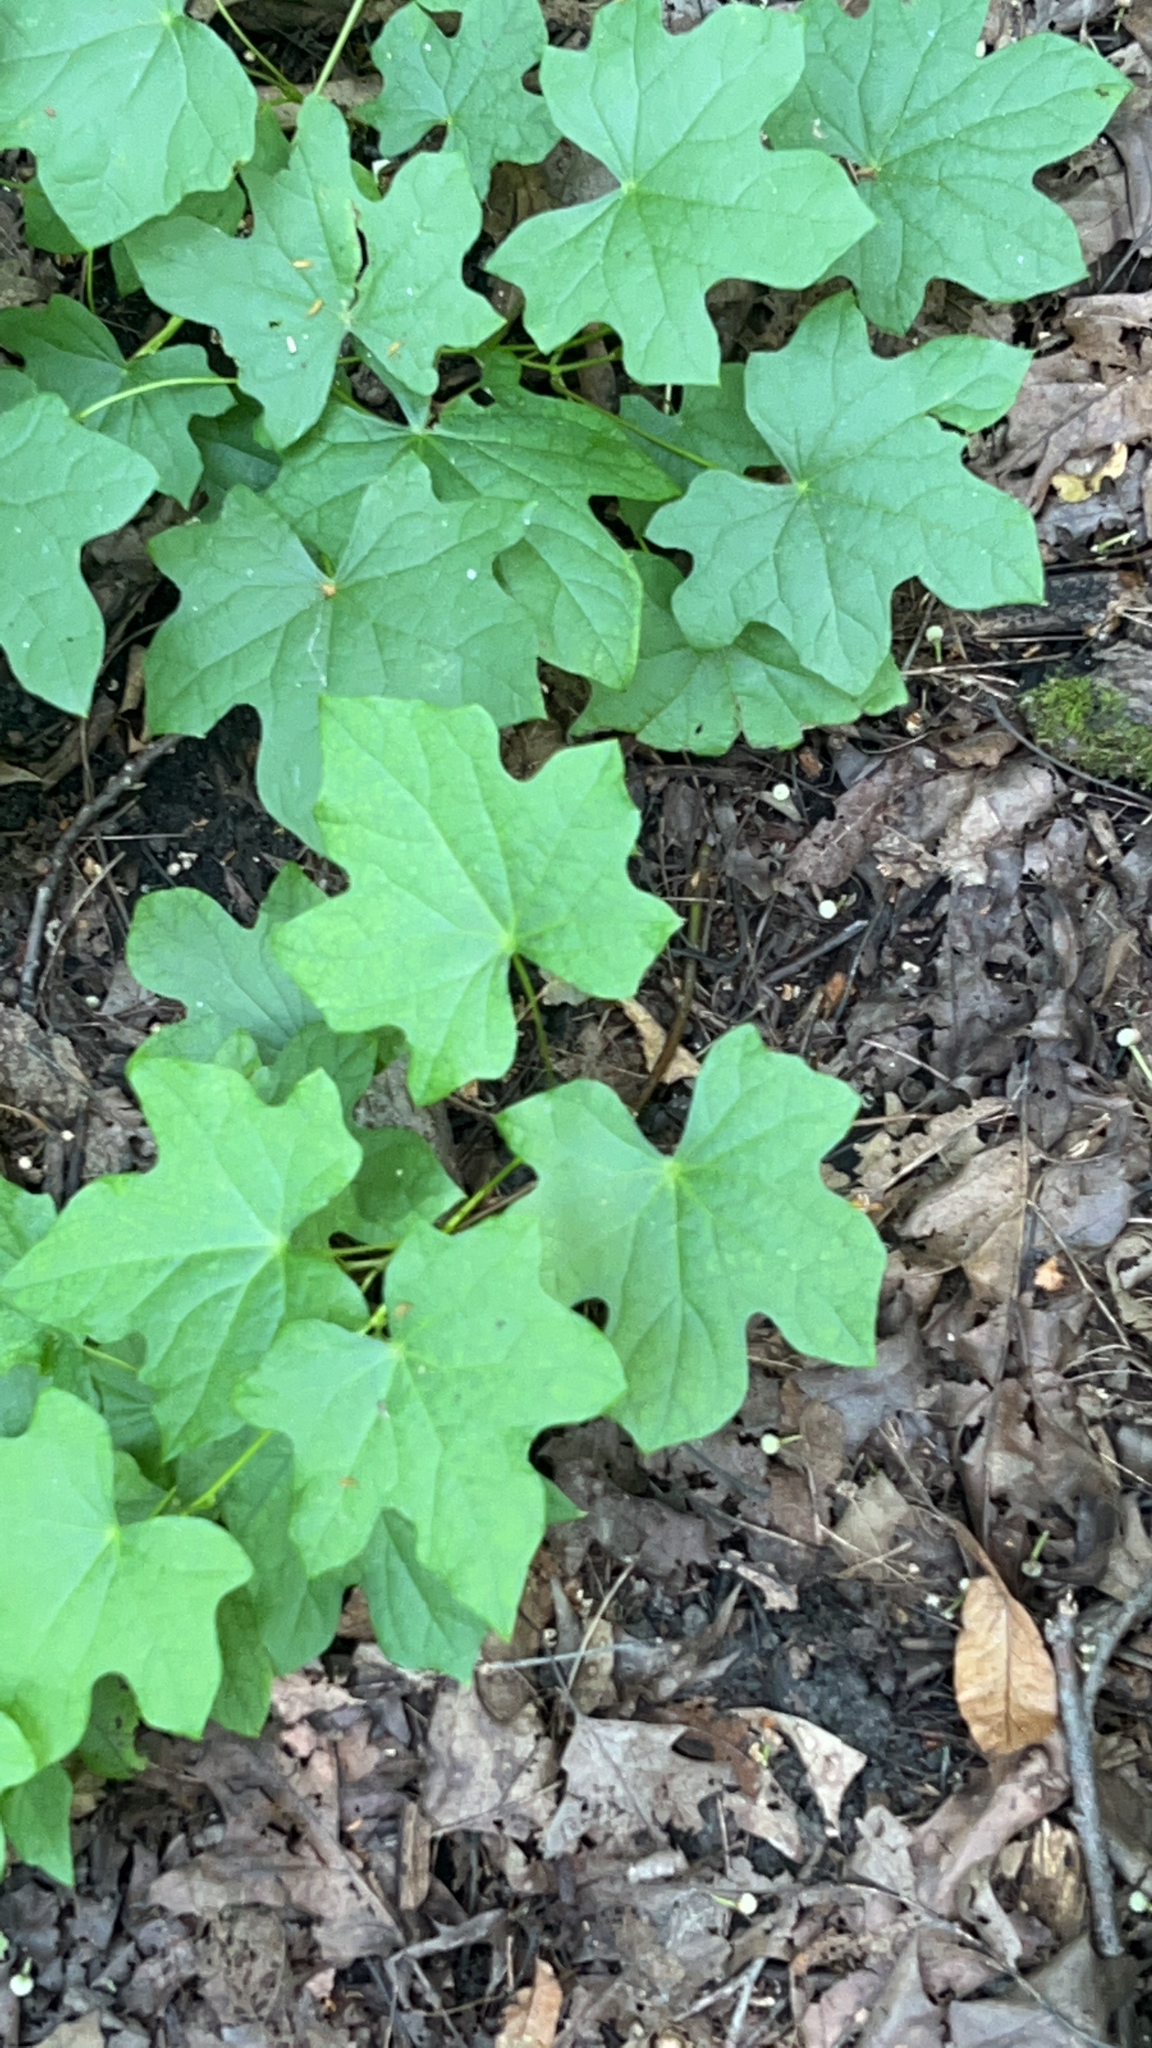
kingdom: Plantae
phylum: Tracheophyta
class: Magnoliopsida
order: Ranunculales
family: Menispermaceae
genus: Menispermum
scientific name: Menispermum canadense
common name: Moonseed
